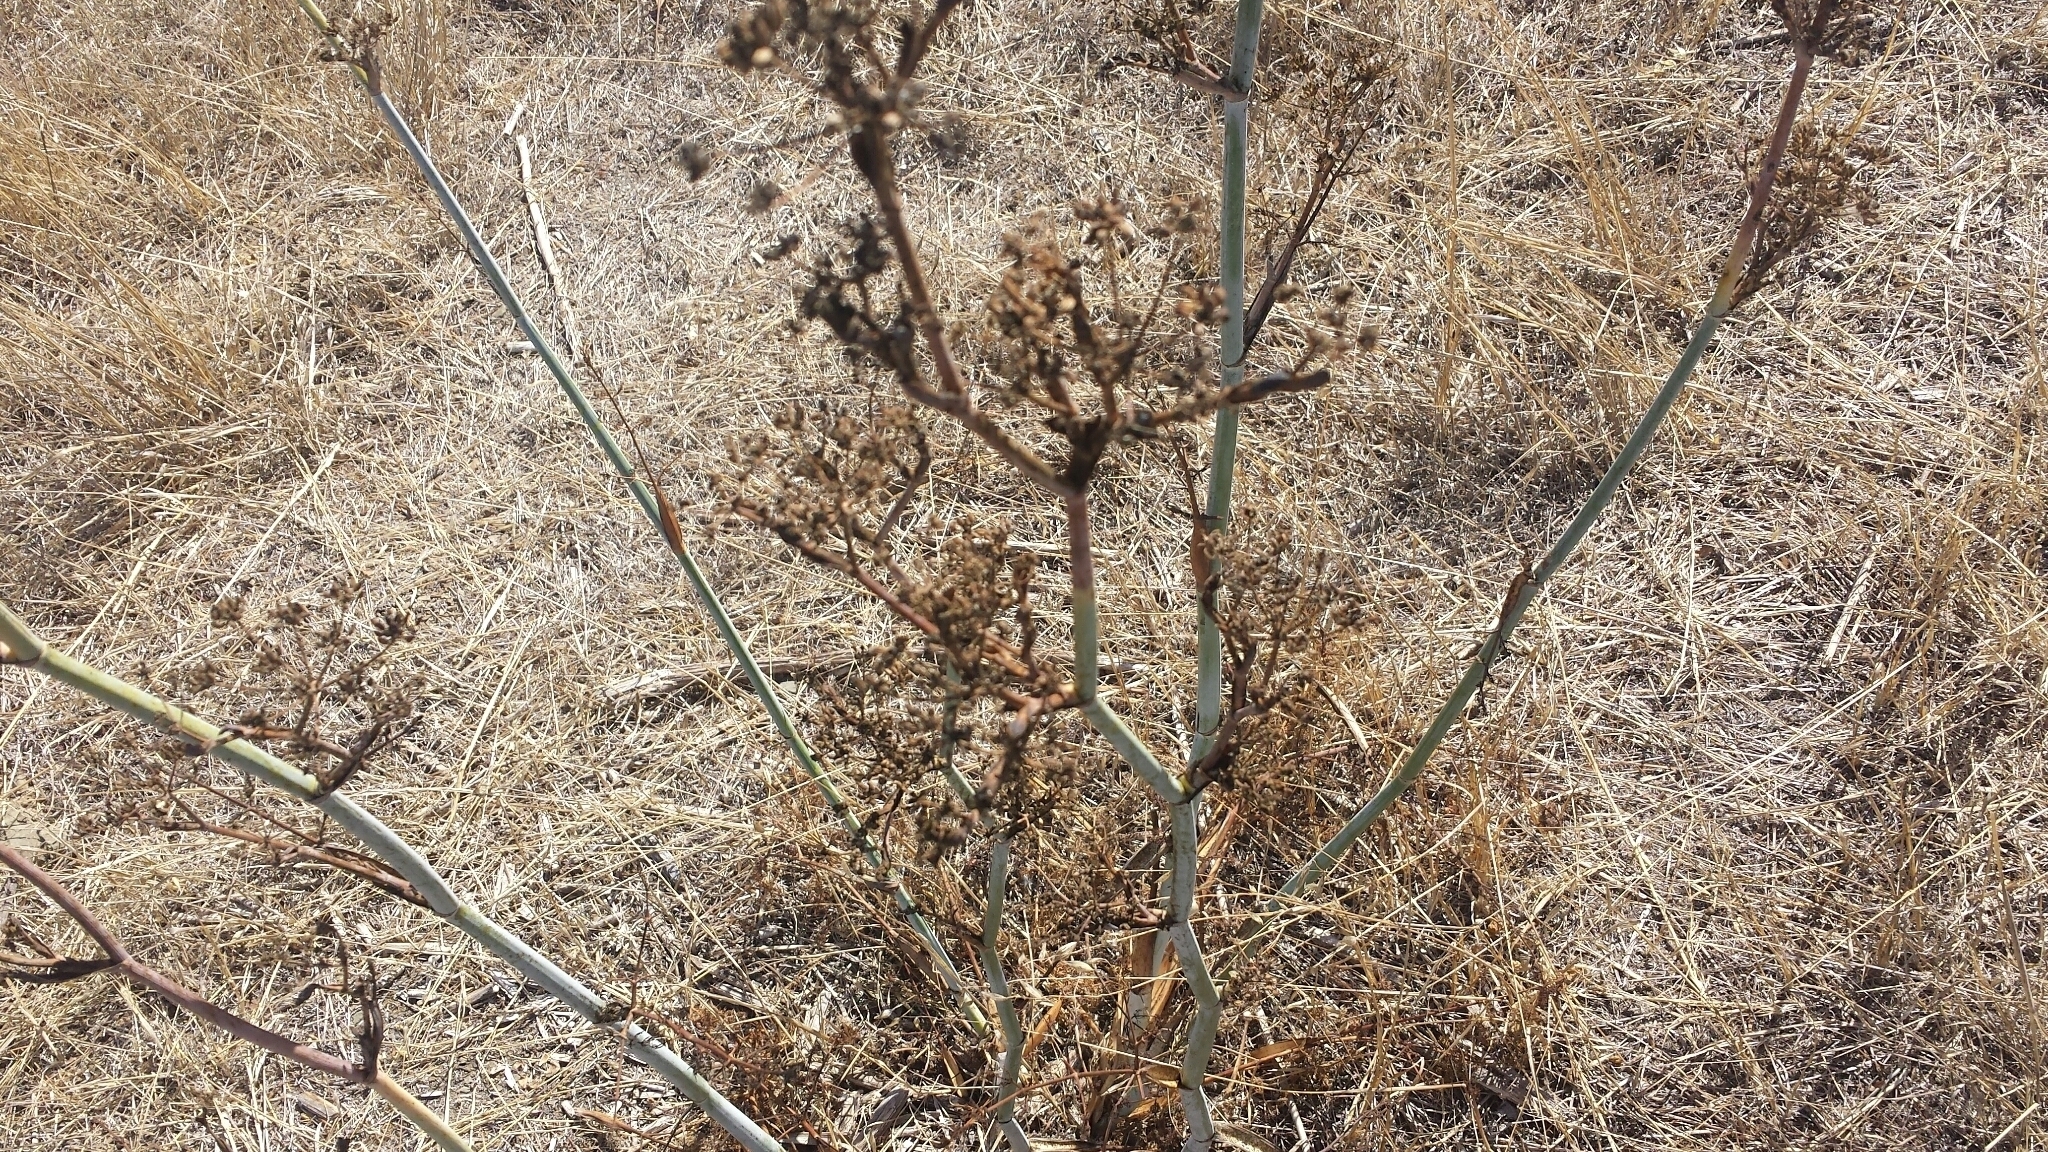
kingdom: Plantae
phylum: Tracheophyta
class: Magnoliopsida
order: Apiales
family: Apiaceae
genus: Foeniculum
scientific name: Foeniculum vulgare
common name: Fennel
